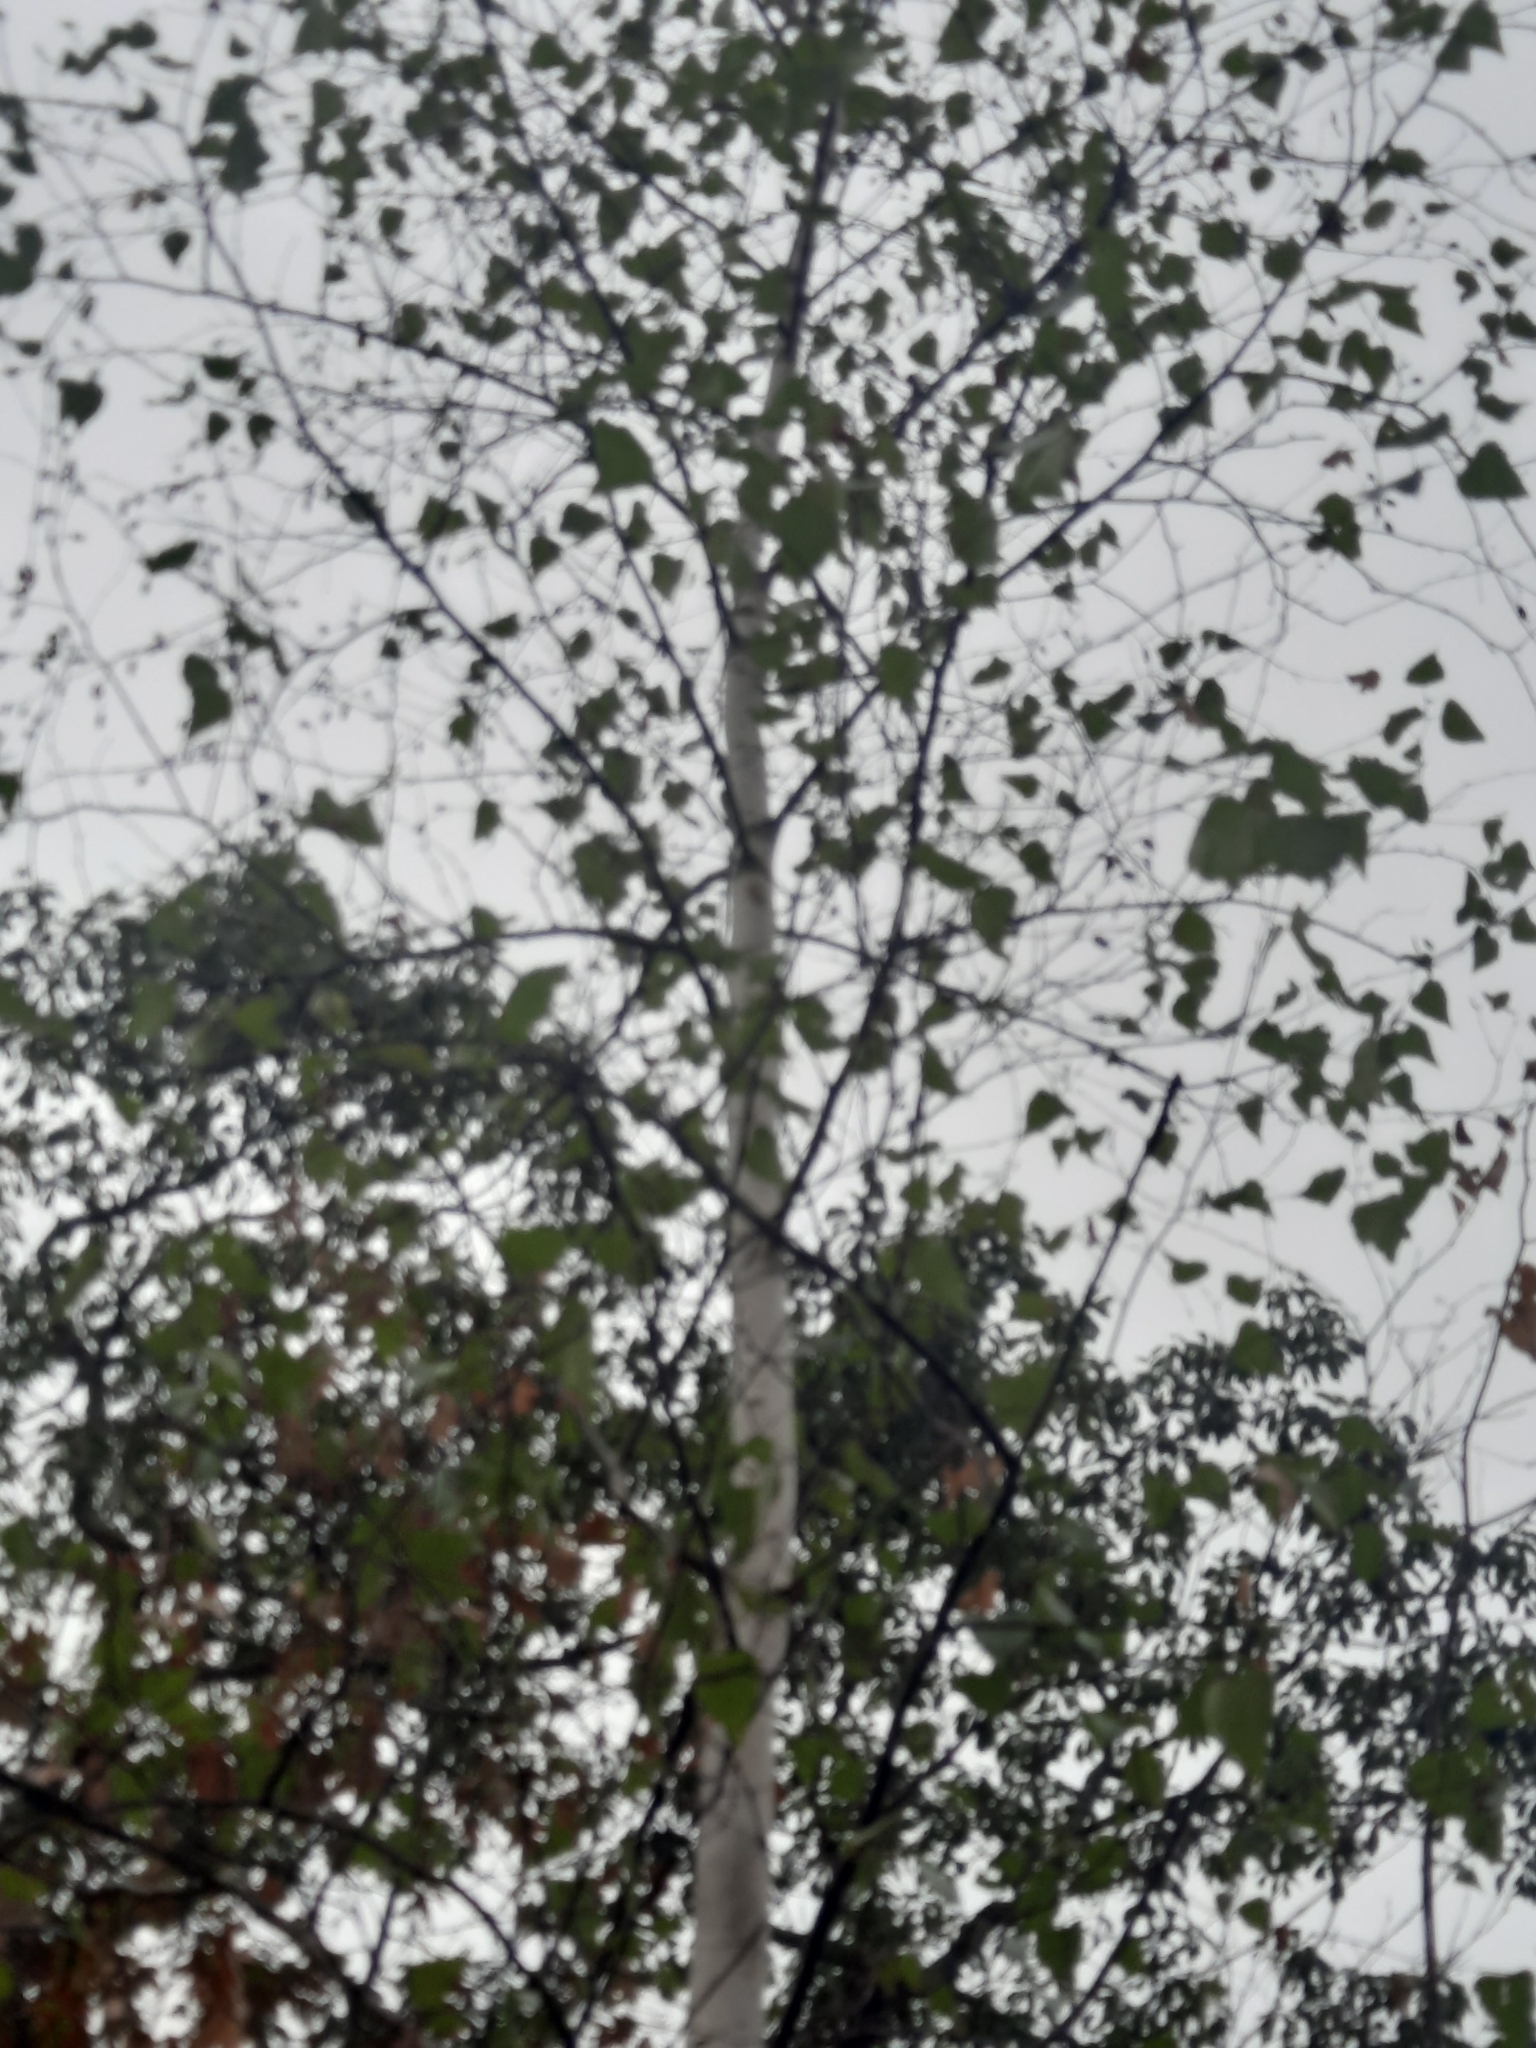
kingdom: Plantae
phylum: Tracheophyta
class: Magnoliopsida
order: Fagales
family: Betulaceae
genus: Betula
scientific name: Betula populifolia
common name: Fire birch
